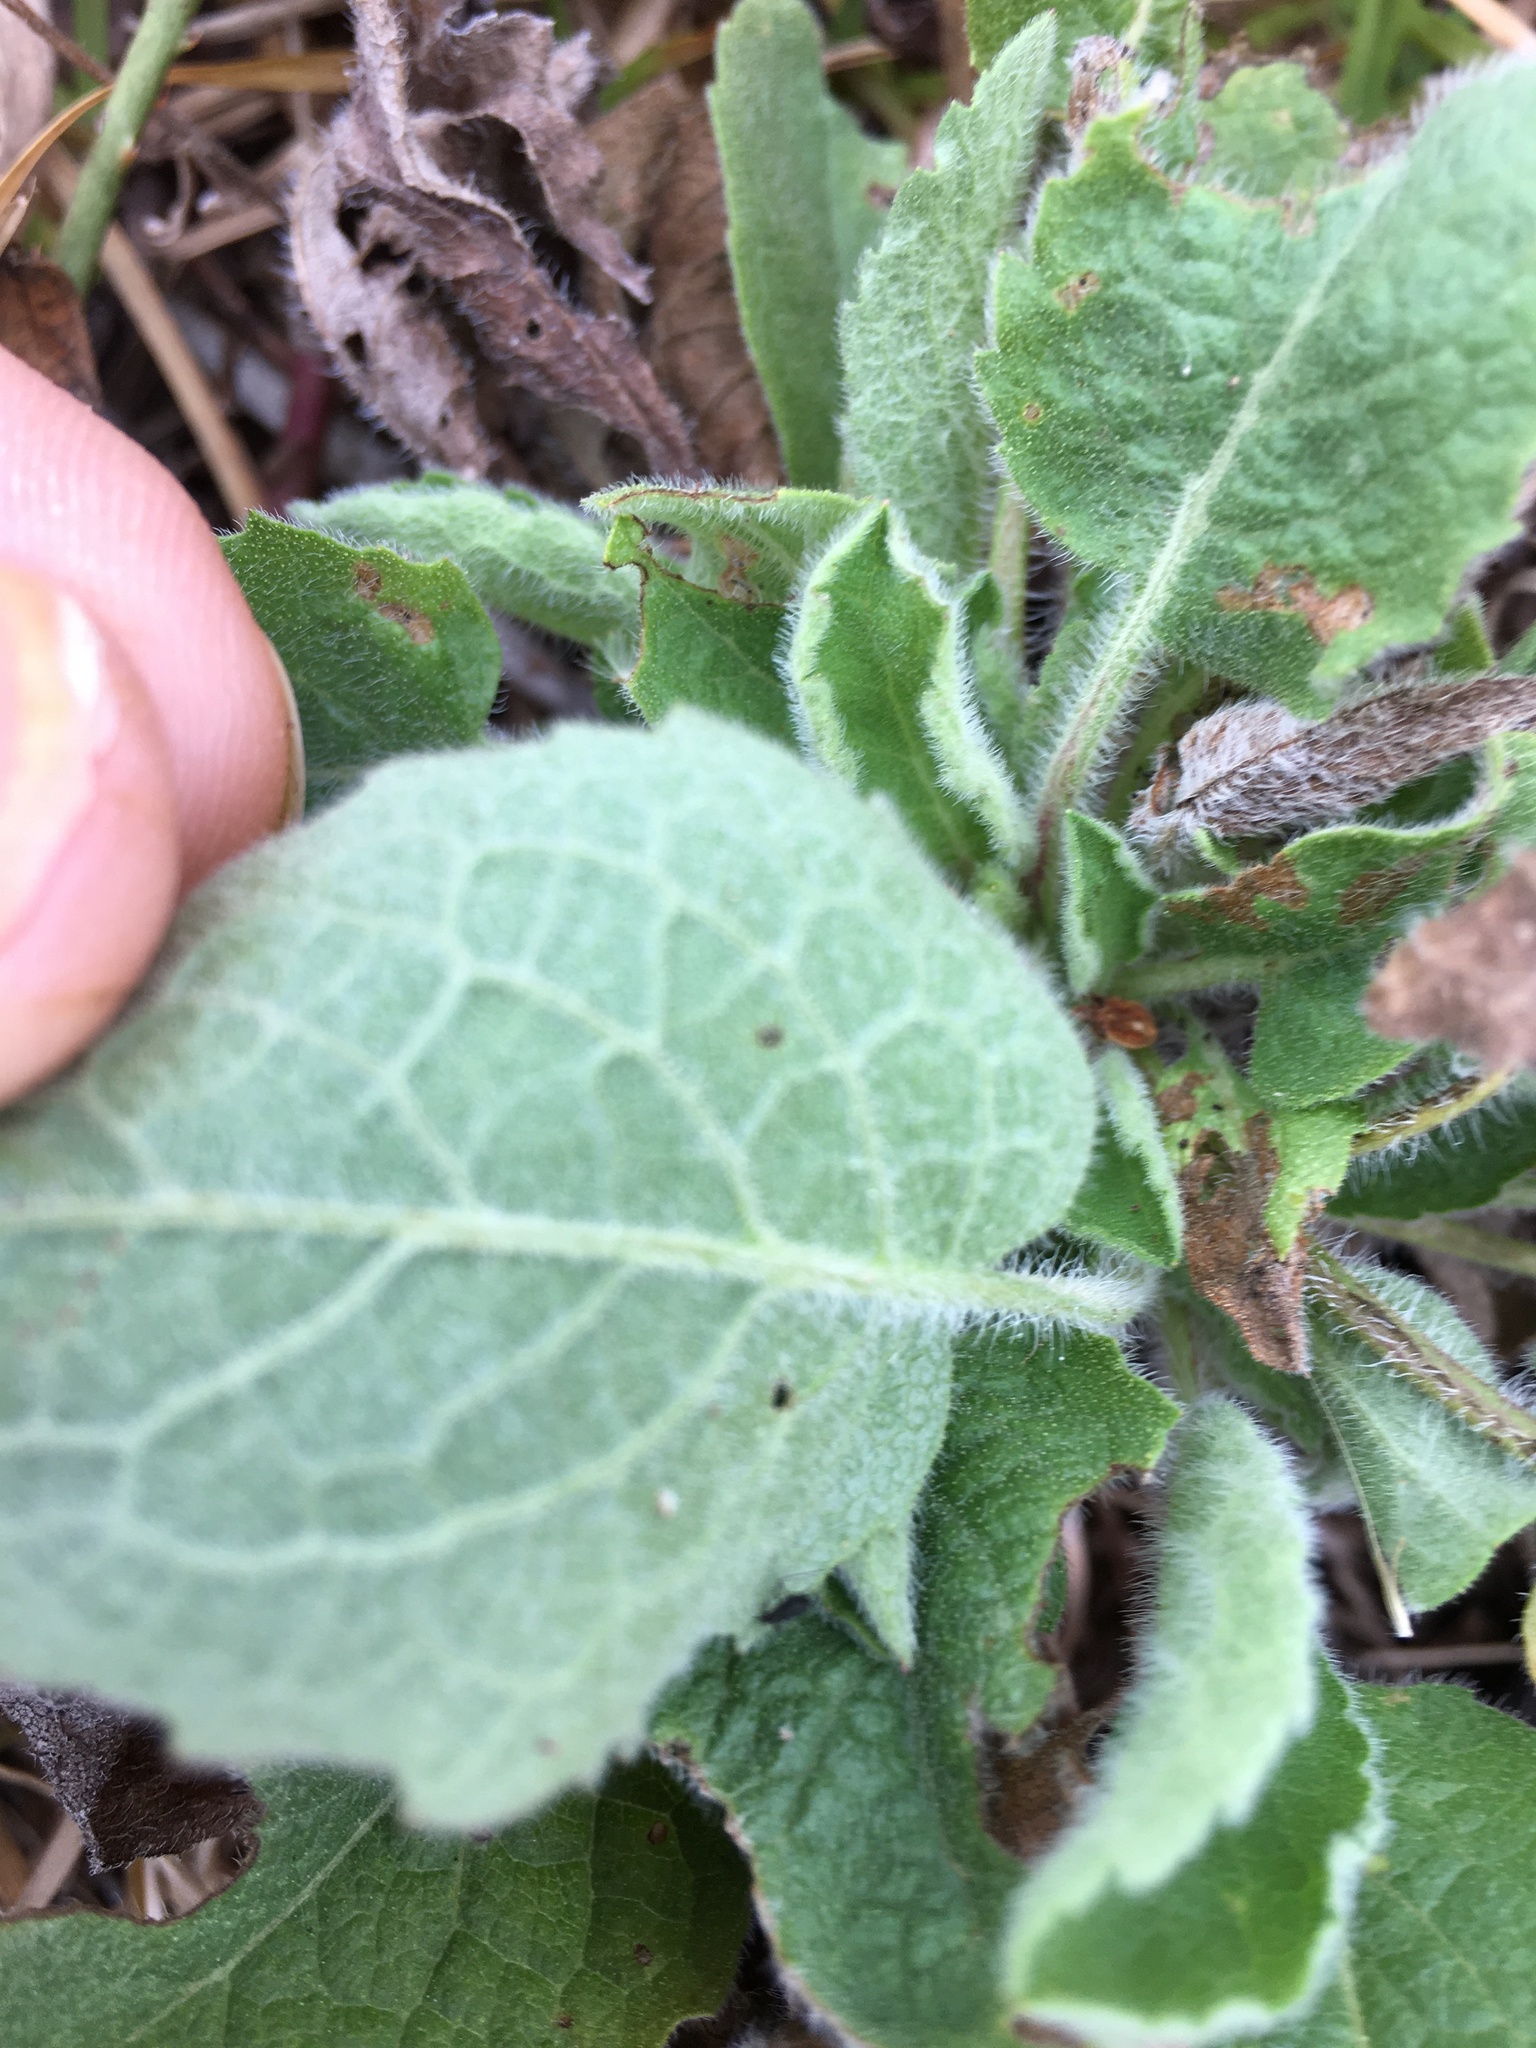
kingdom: Plantae
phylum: Tracheophyta
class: Magnoliopsida
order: Asterales
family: Asteraceae
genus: Heterotheca
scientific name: Heterotheca subaxillaris
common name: Camphorweed
